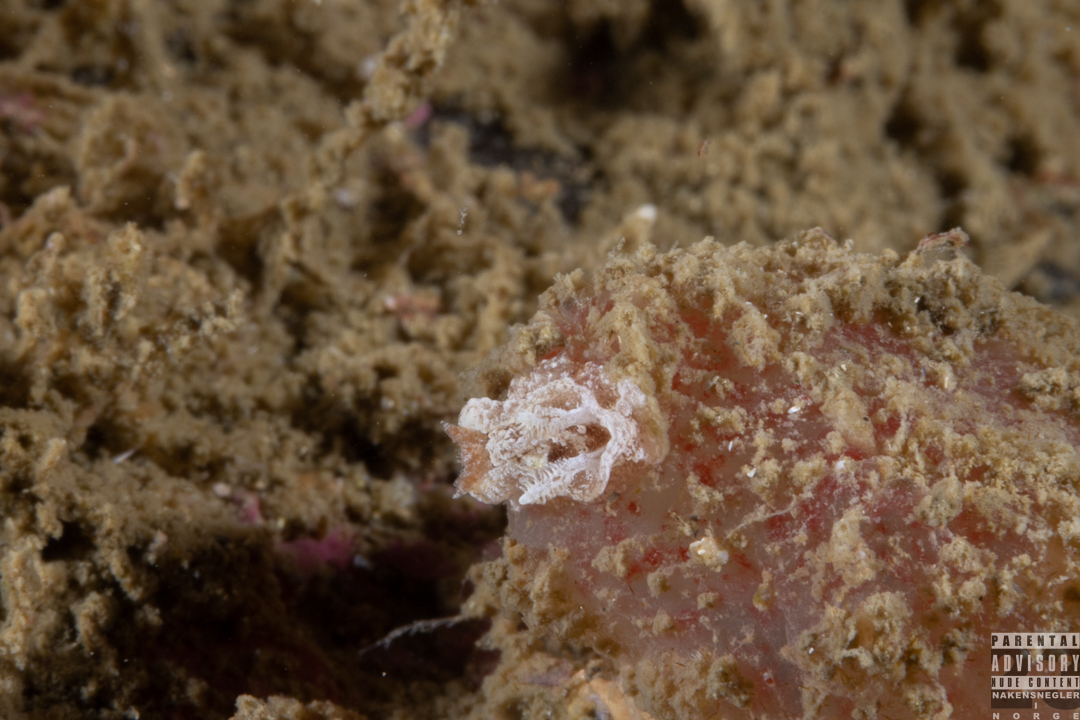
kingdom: Animalia
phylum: Mollusca
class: Gastropoda
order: Nudibranchia
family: Goniodorididae
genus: Pelagella
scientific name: Pelagella castanea
